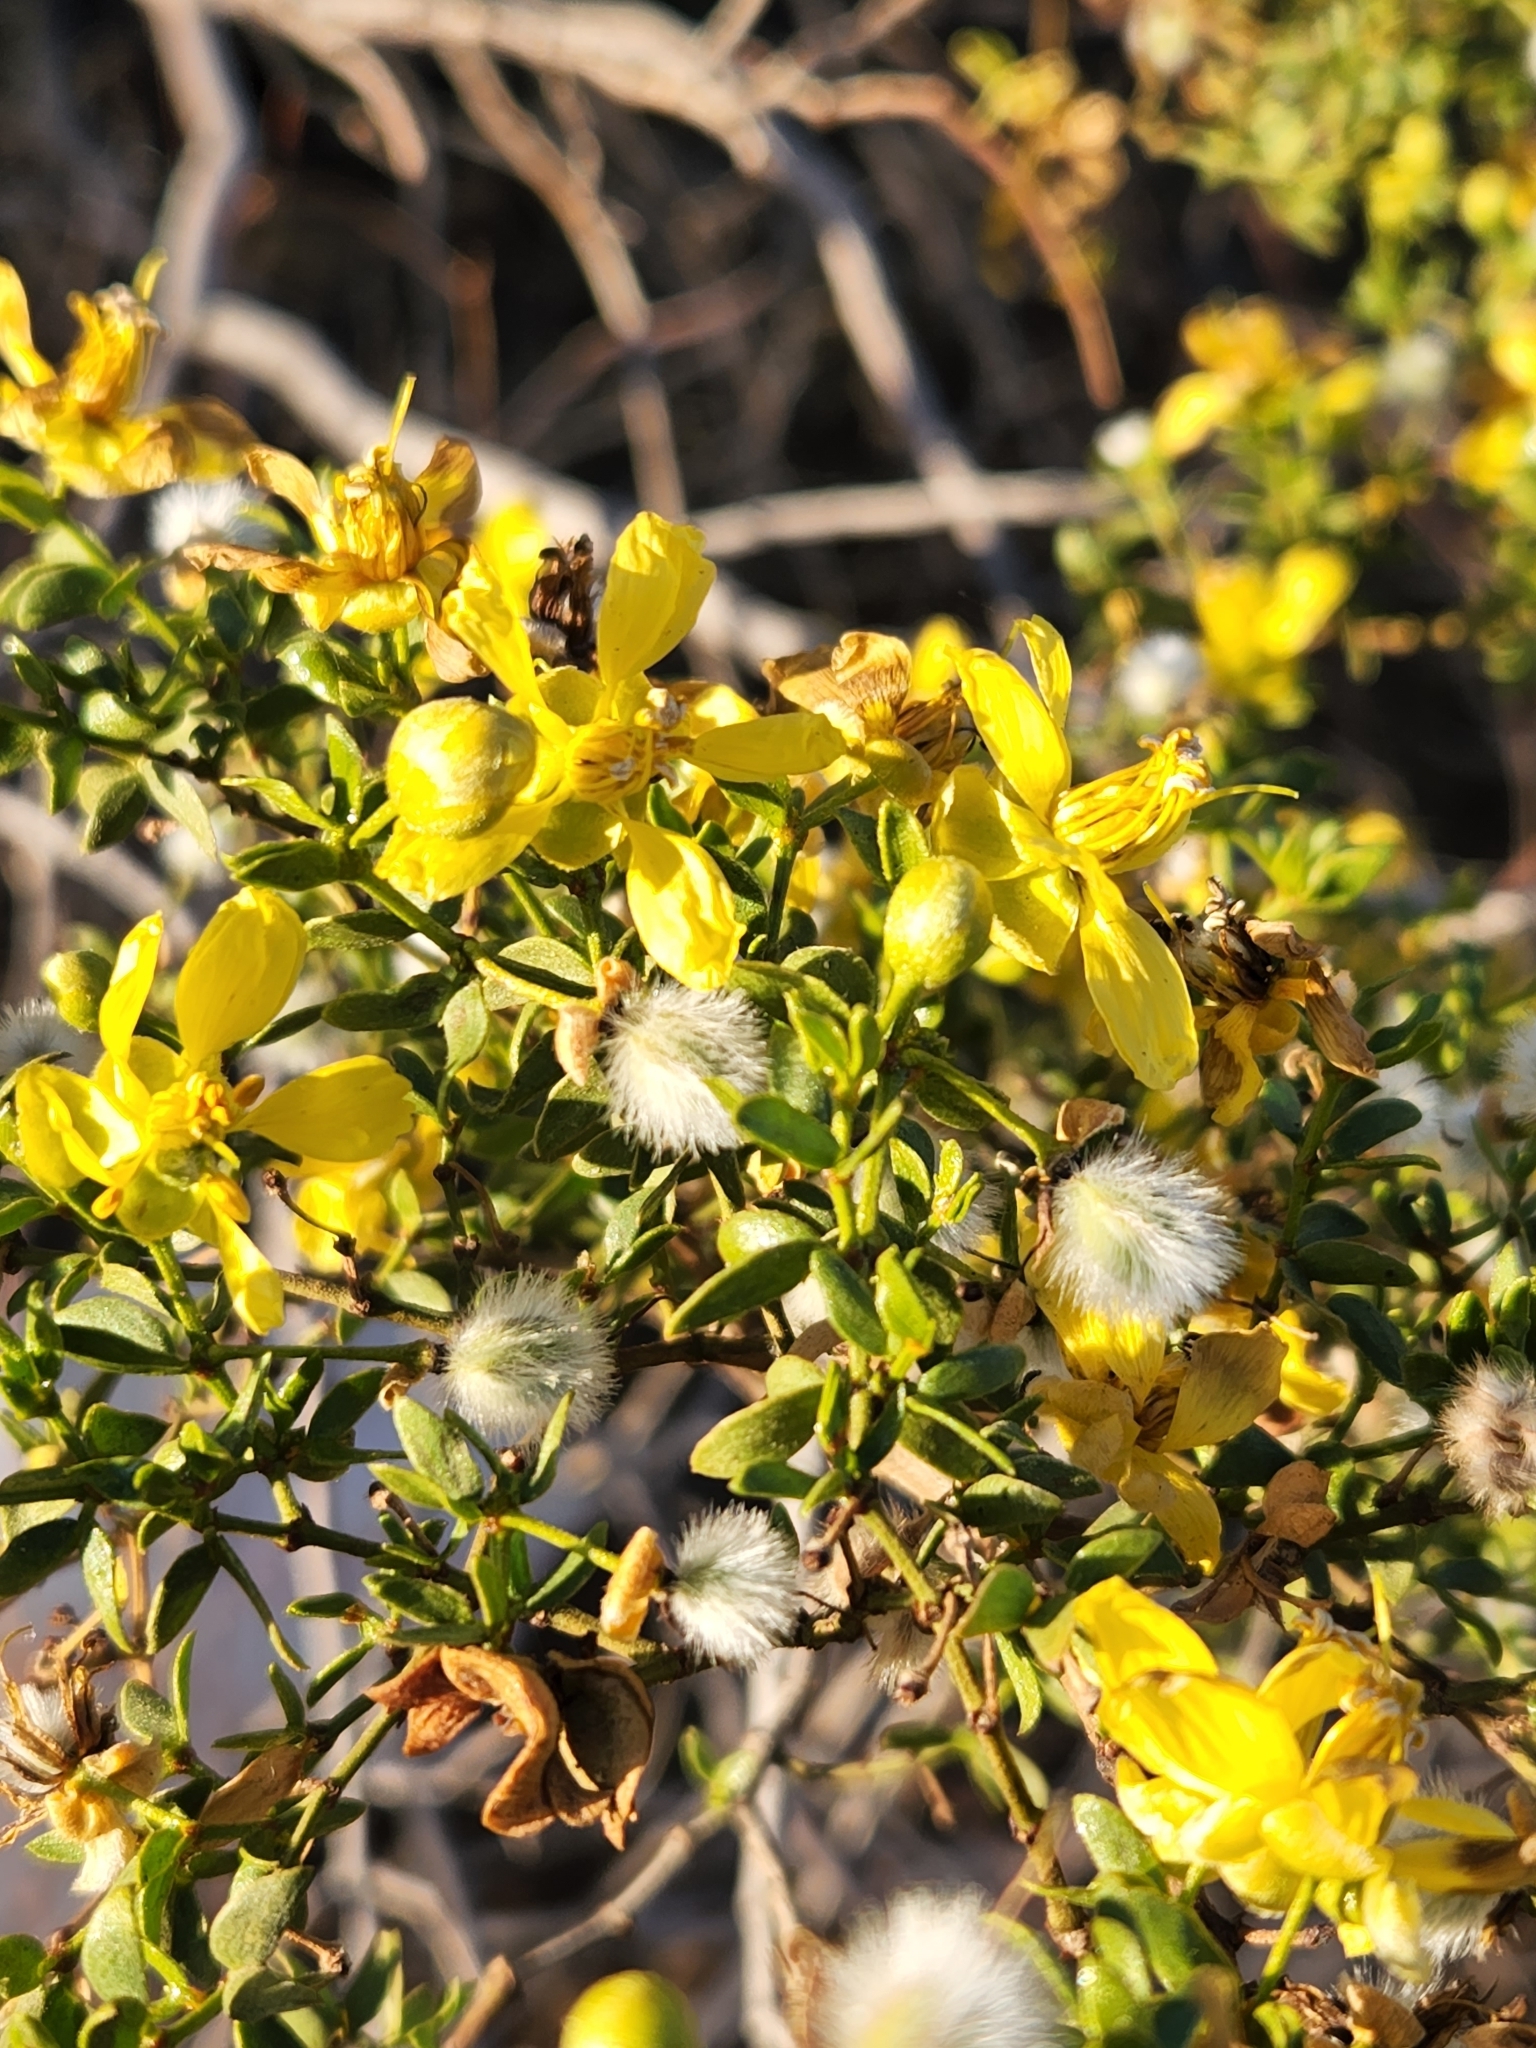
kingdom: Plantae
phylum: Tracheophyta
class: Magnoliopsida
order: Zygophyllales
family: Zygophyllaceae
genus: Larrea
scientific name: Larrea tridentata
